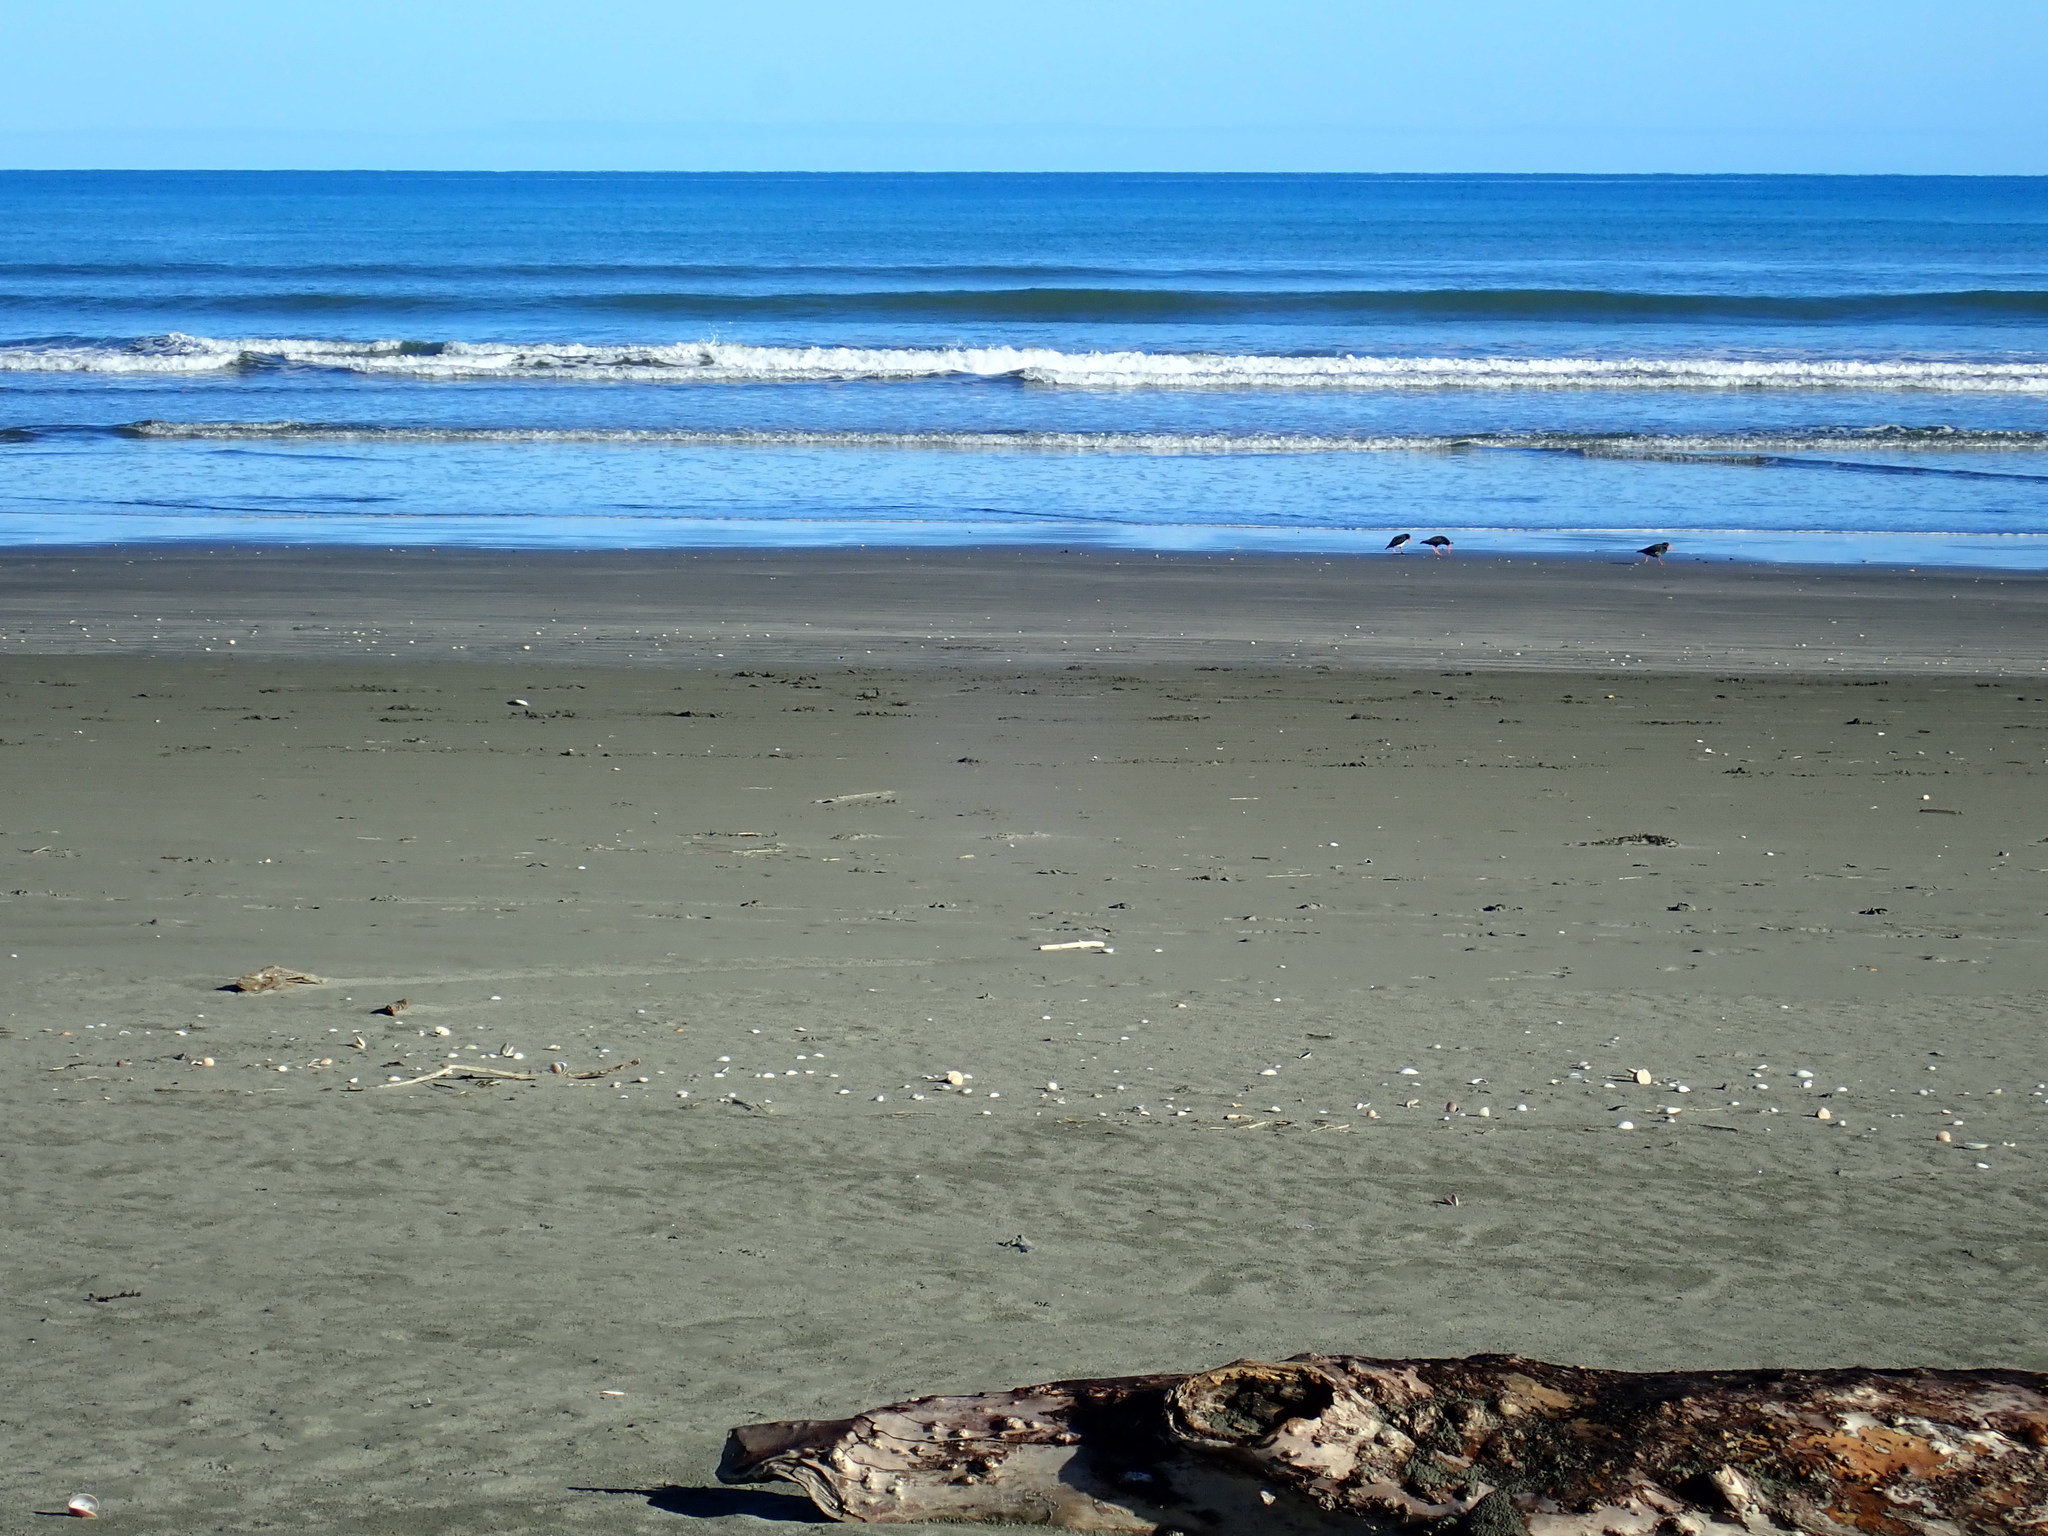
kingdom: Animalia
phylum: Chordata
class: Aves
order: Charadriiformes
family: Haematopodidae
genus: Haematopus
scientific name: Haematopus unicolor
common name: Variable oystercatcher
